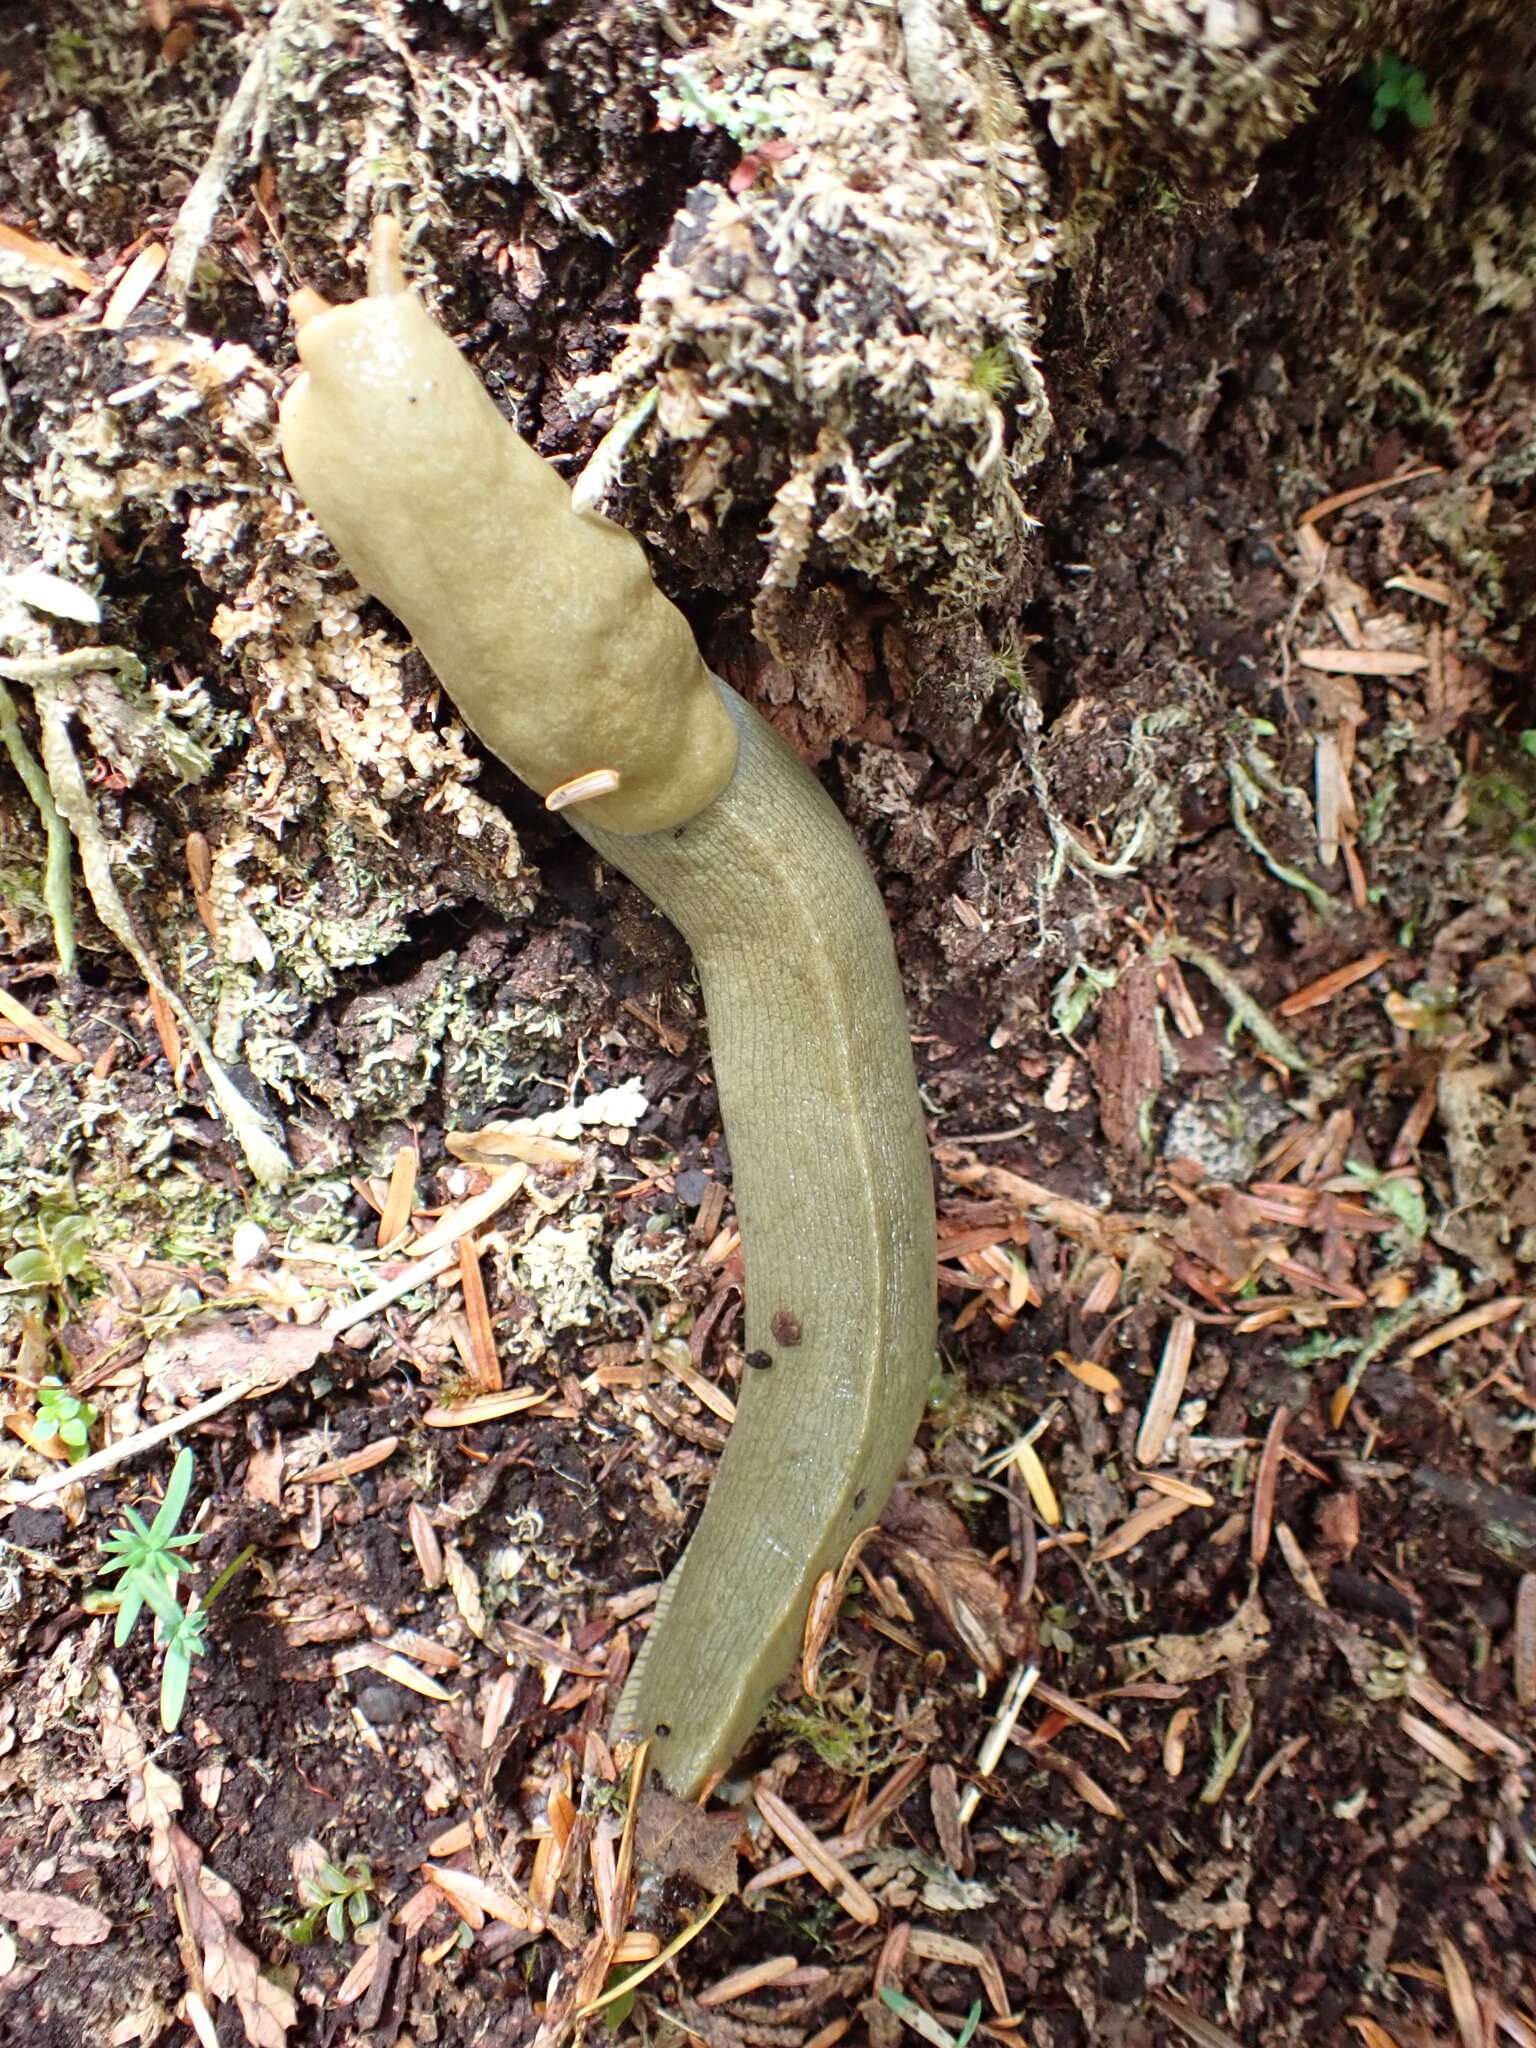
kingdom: Animalia
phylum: Mollusca
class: Gastropoda
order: Stylommatophora
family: Ariolimacidae
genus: Ariolimax
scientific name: Ariolimax columbianus
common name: Pacific banana slug
